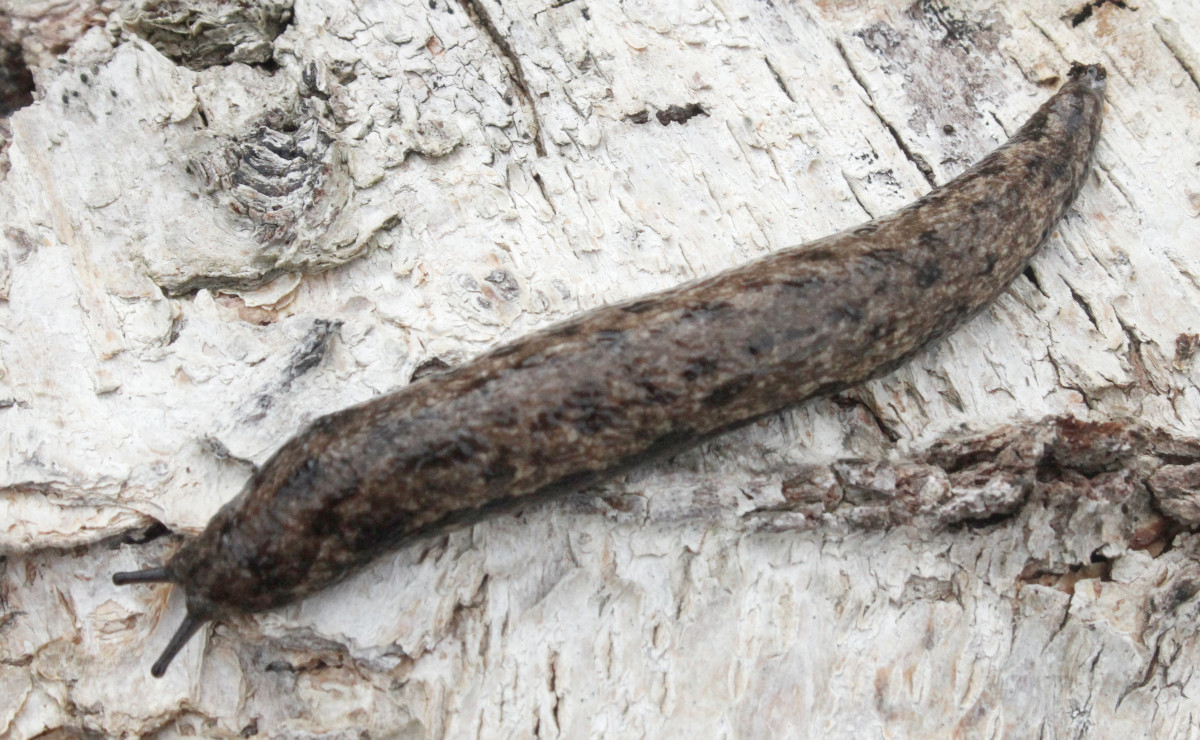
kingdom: Animalia
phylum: Mollusca
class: Gastropoda
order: Stylommatophora
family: Philomycidae
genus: Megapallifera
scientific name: Megapallifera mutabilis
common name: Changeable mantleslug
